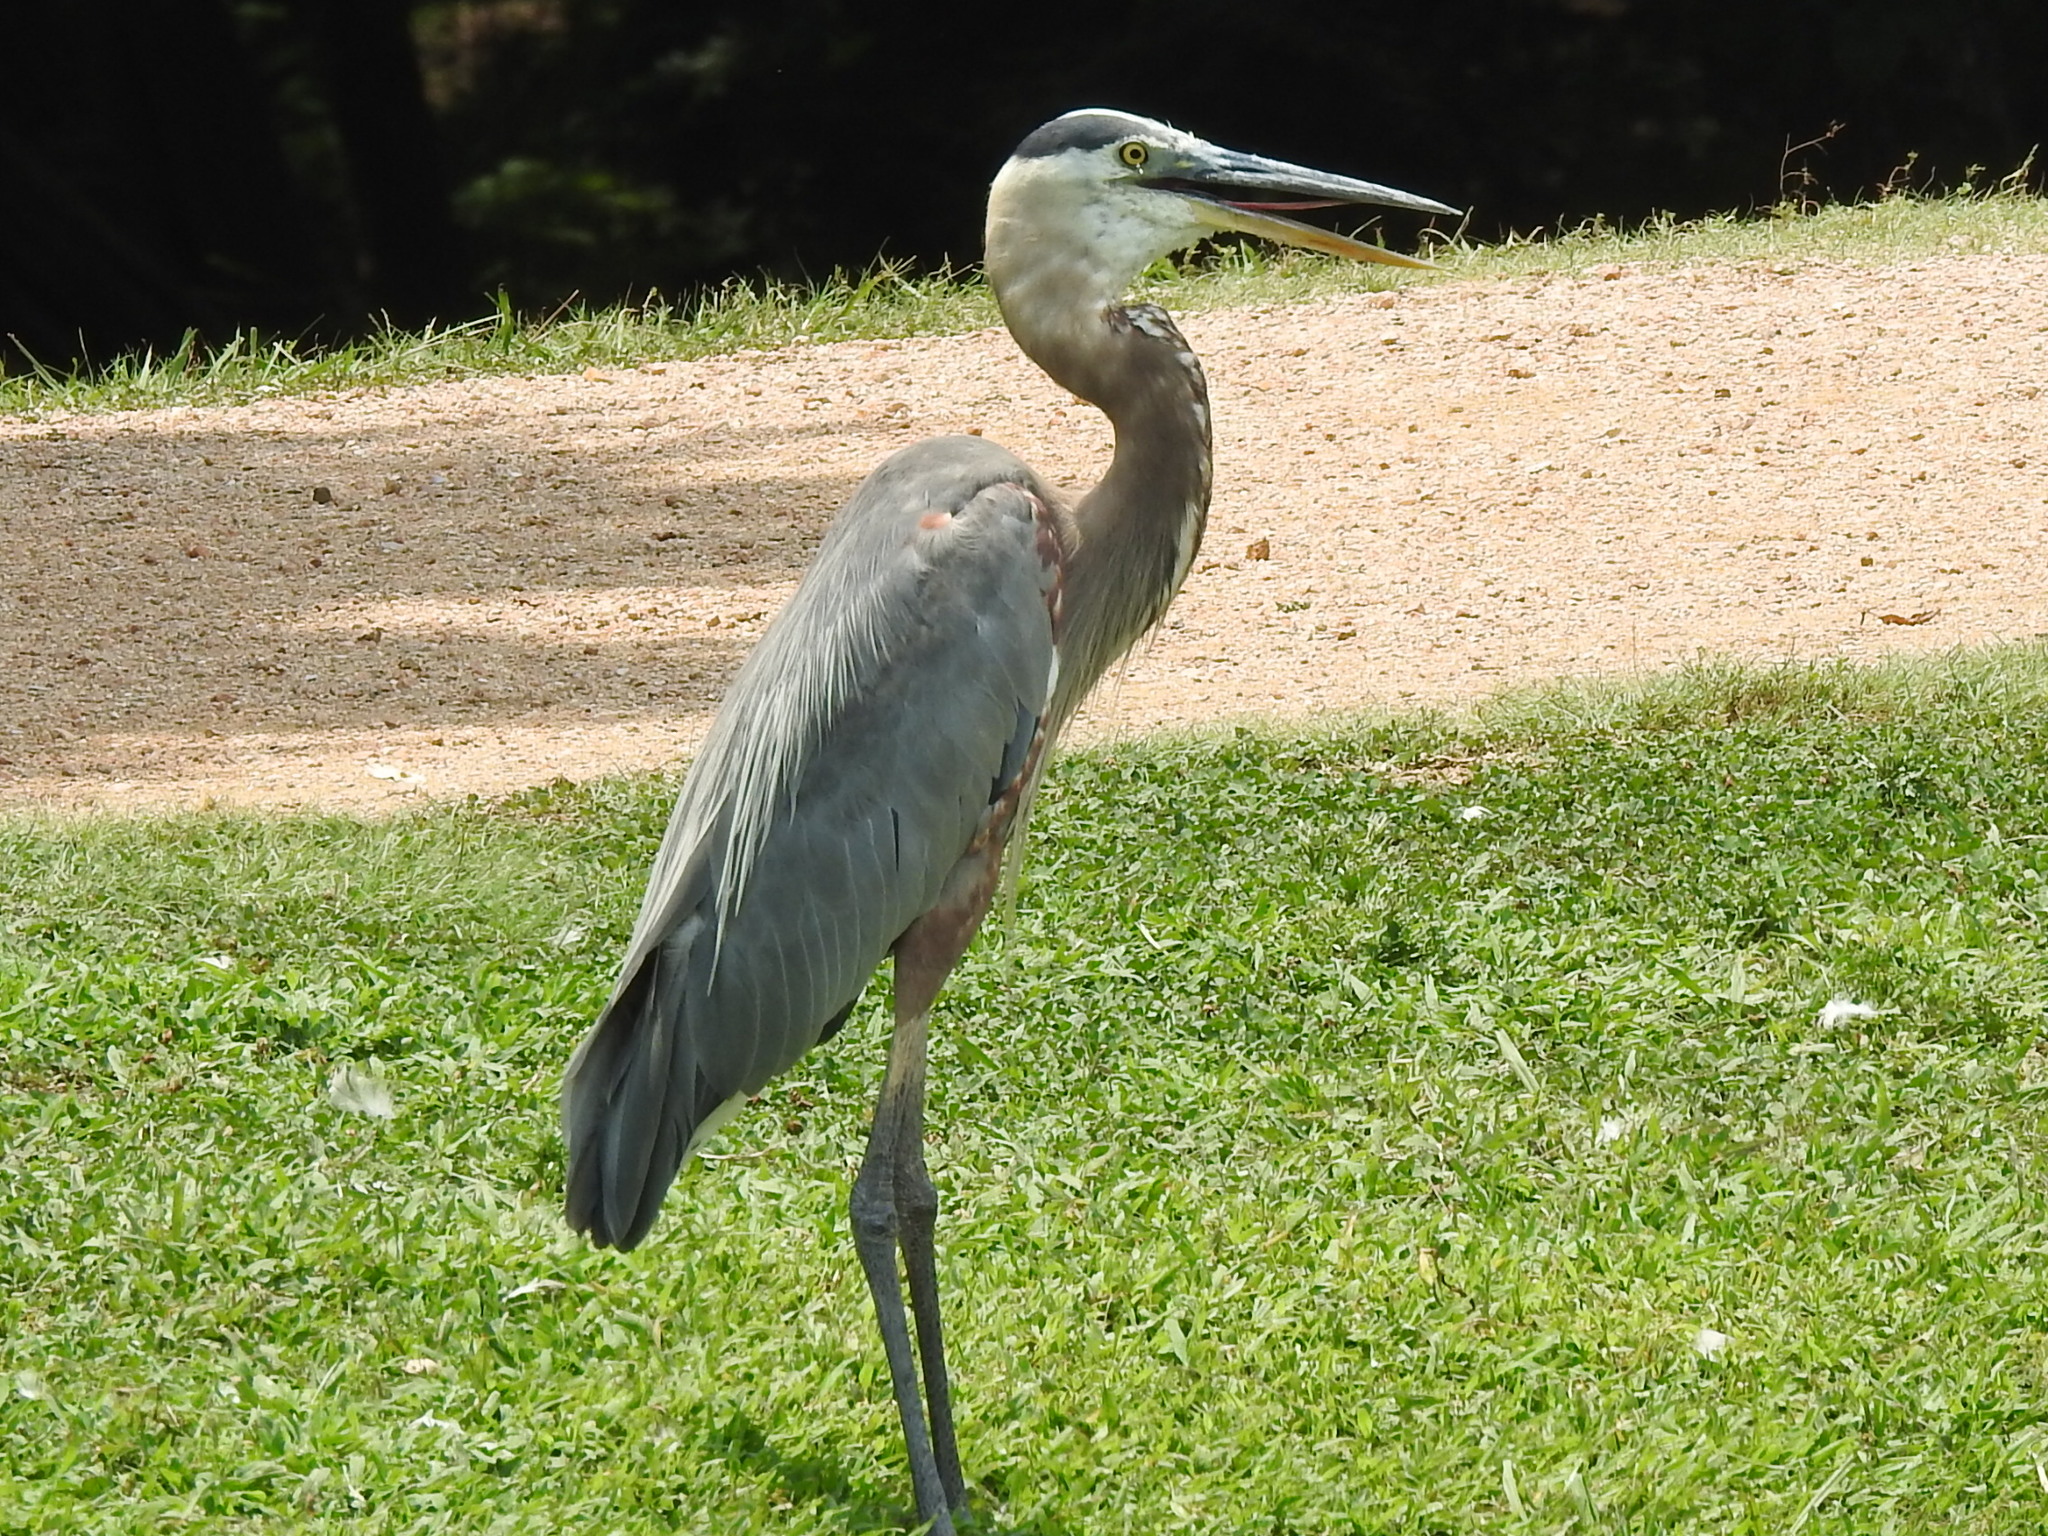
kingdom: Animalia
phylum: Chordata
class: Aves
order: Pelecaniformes
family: Ardeidae
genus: Ardea
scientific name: Ardea herodias
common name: Great blue heron
